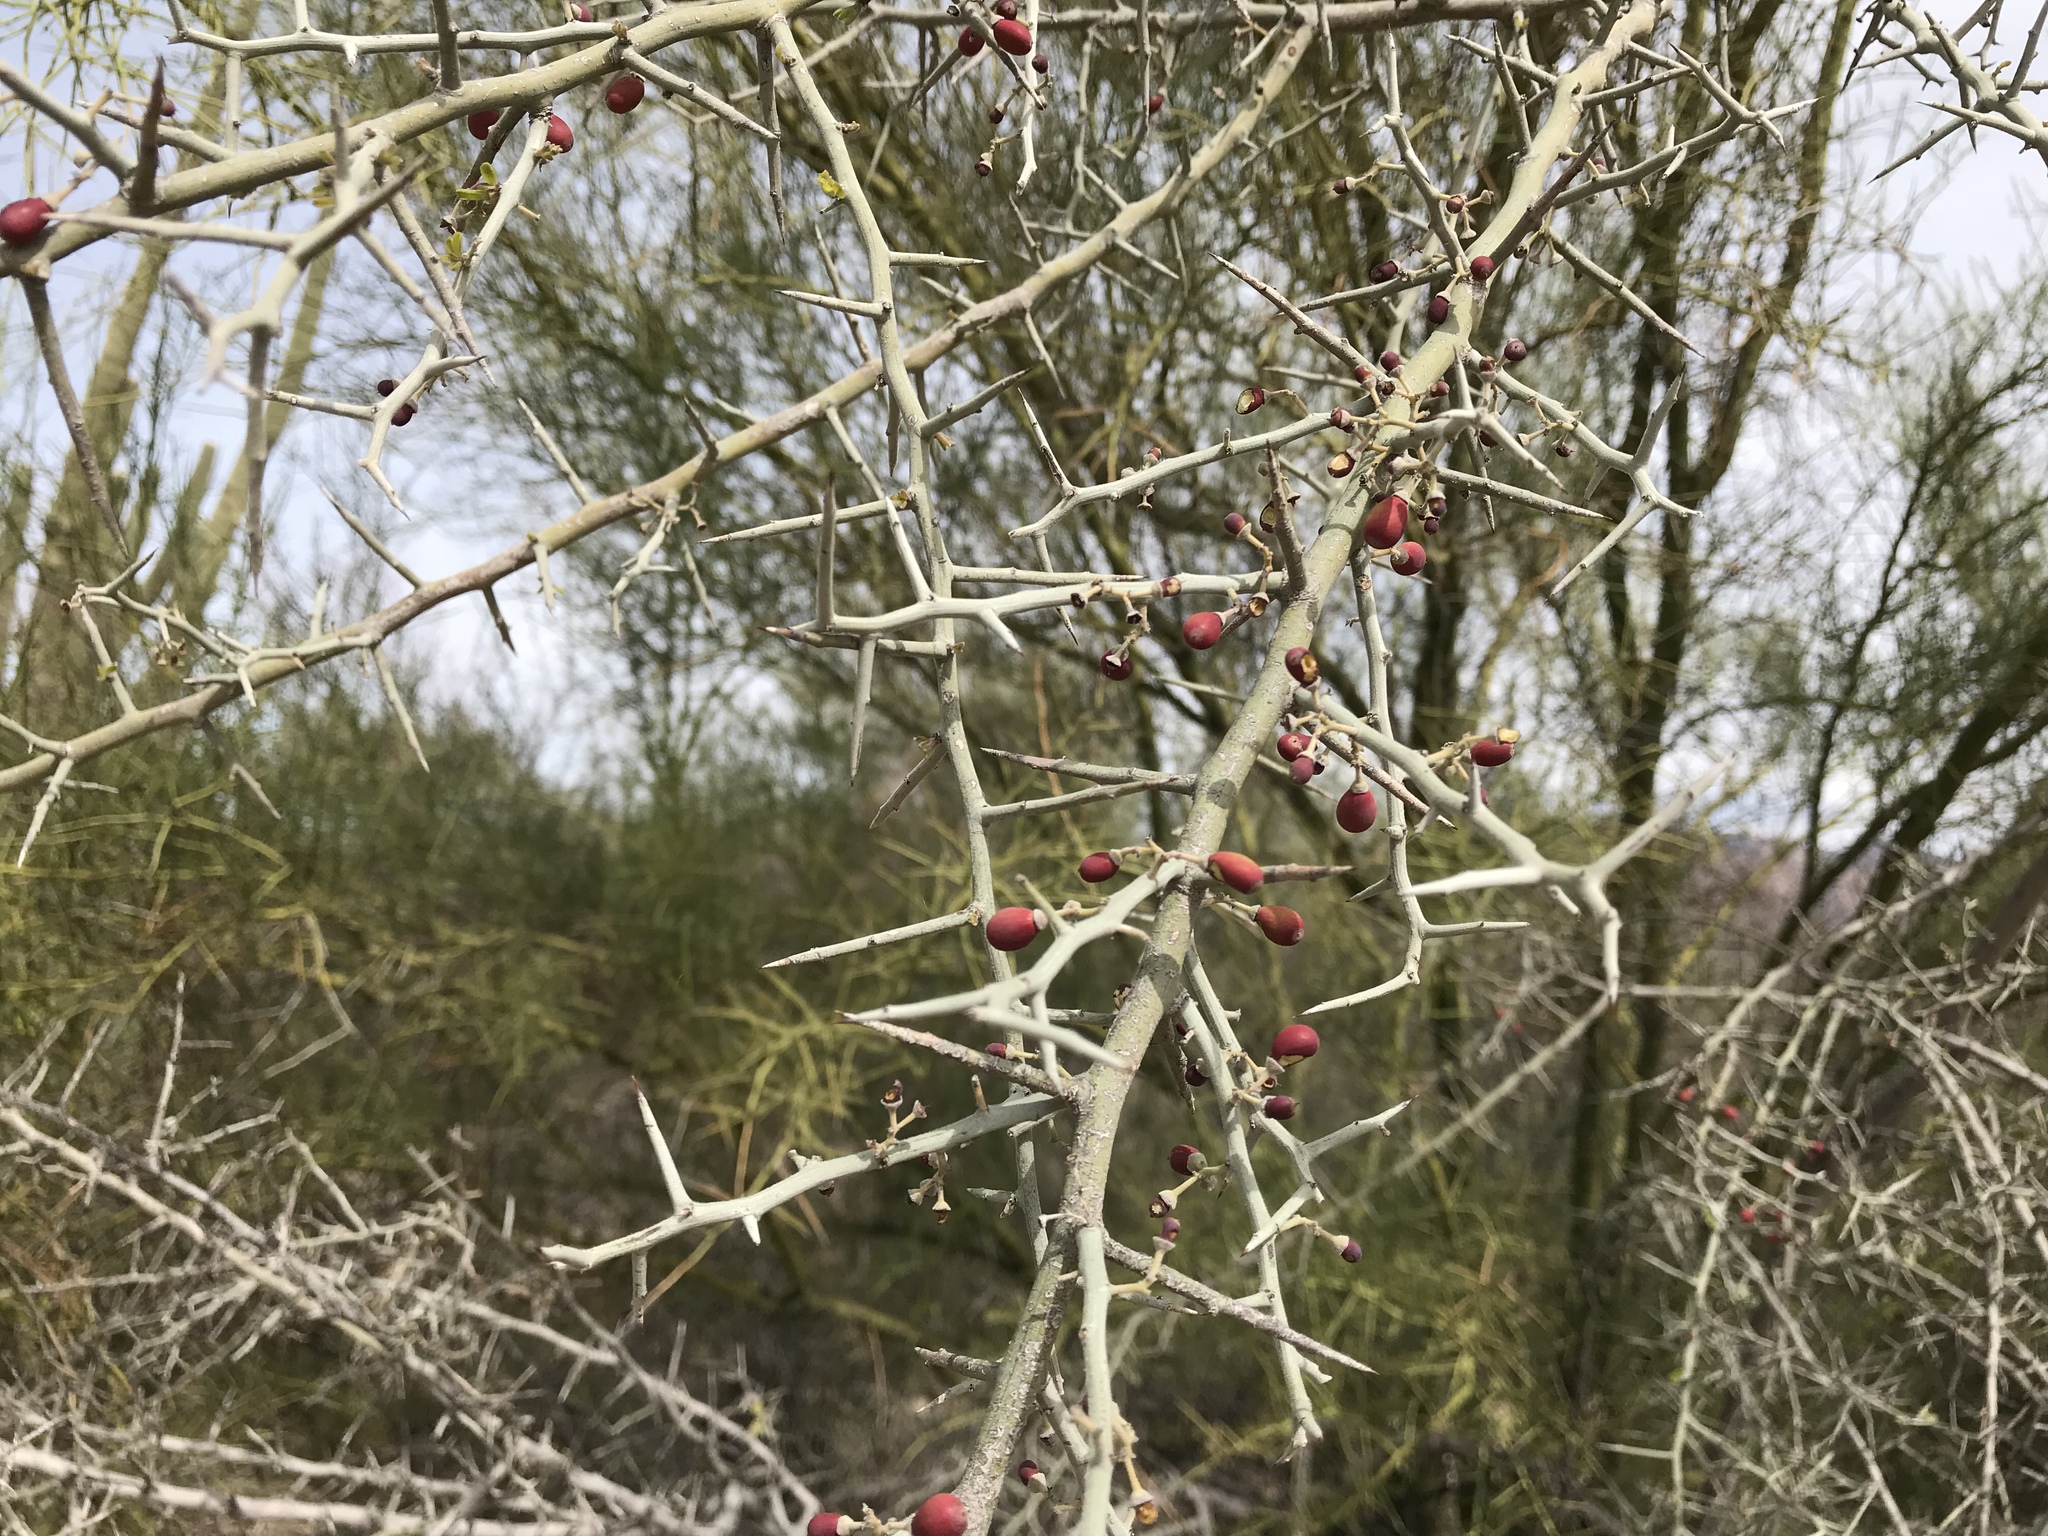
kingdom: Plantae
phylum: Tracheophyta
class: Magnoliopsida
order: Rosales
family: Rhamnaceae
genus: Sarcomphalus
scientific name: Sarcomphalus obtusifolius
